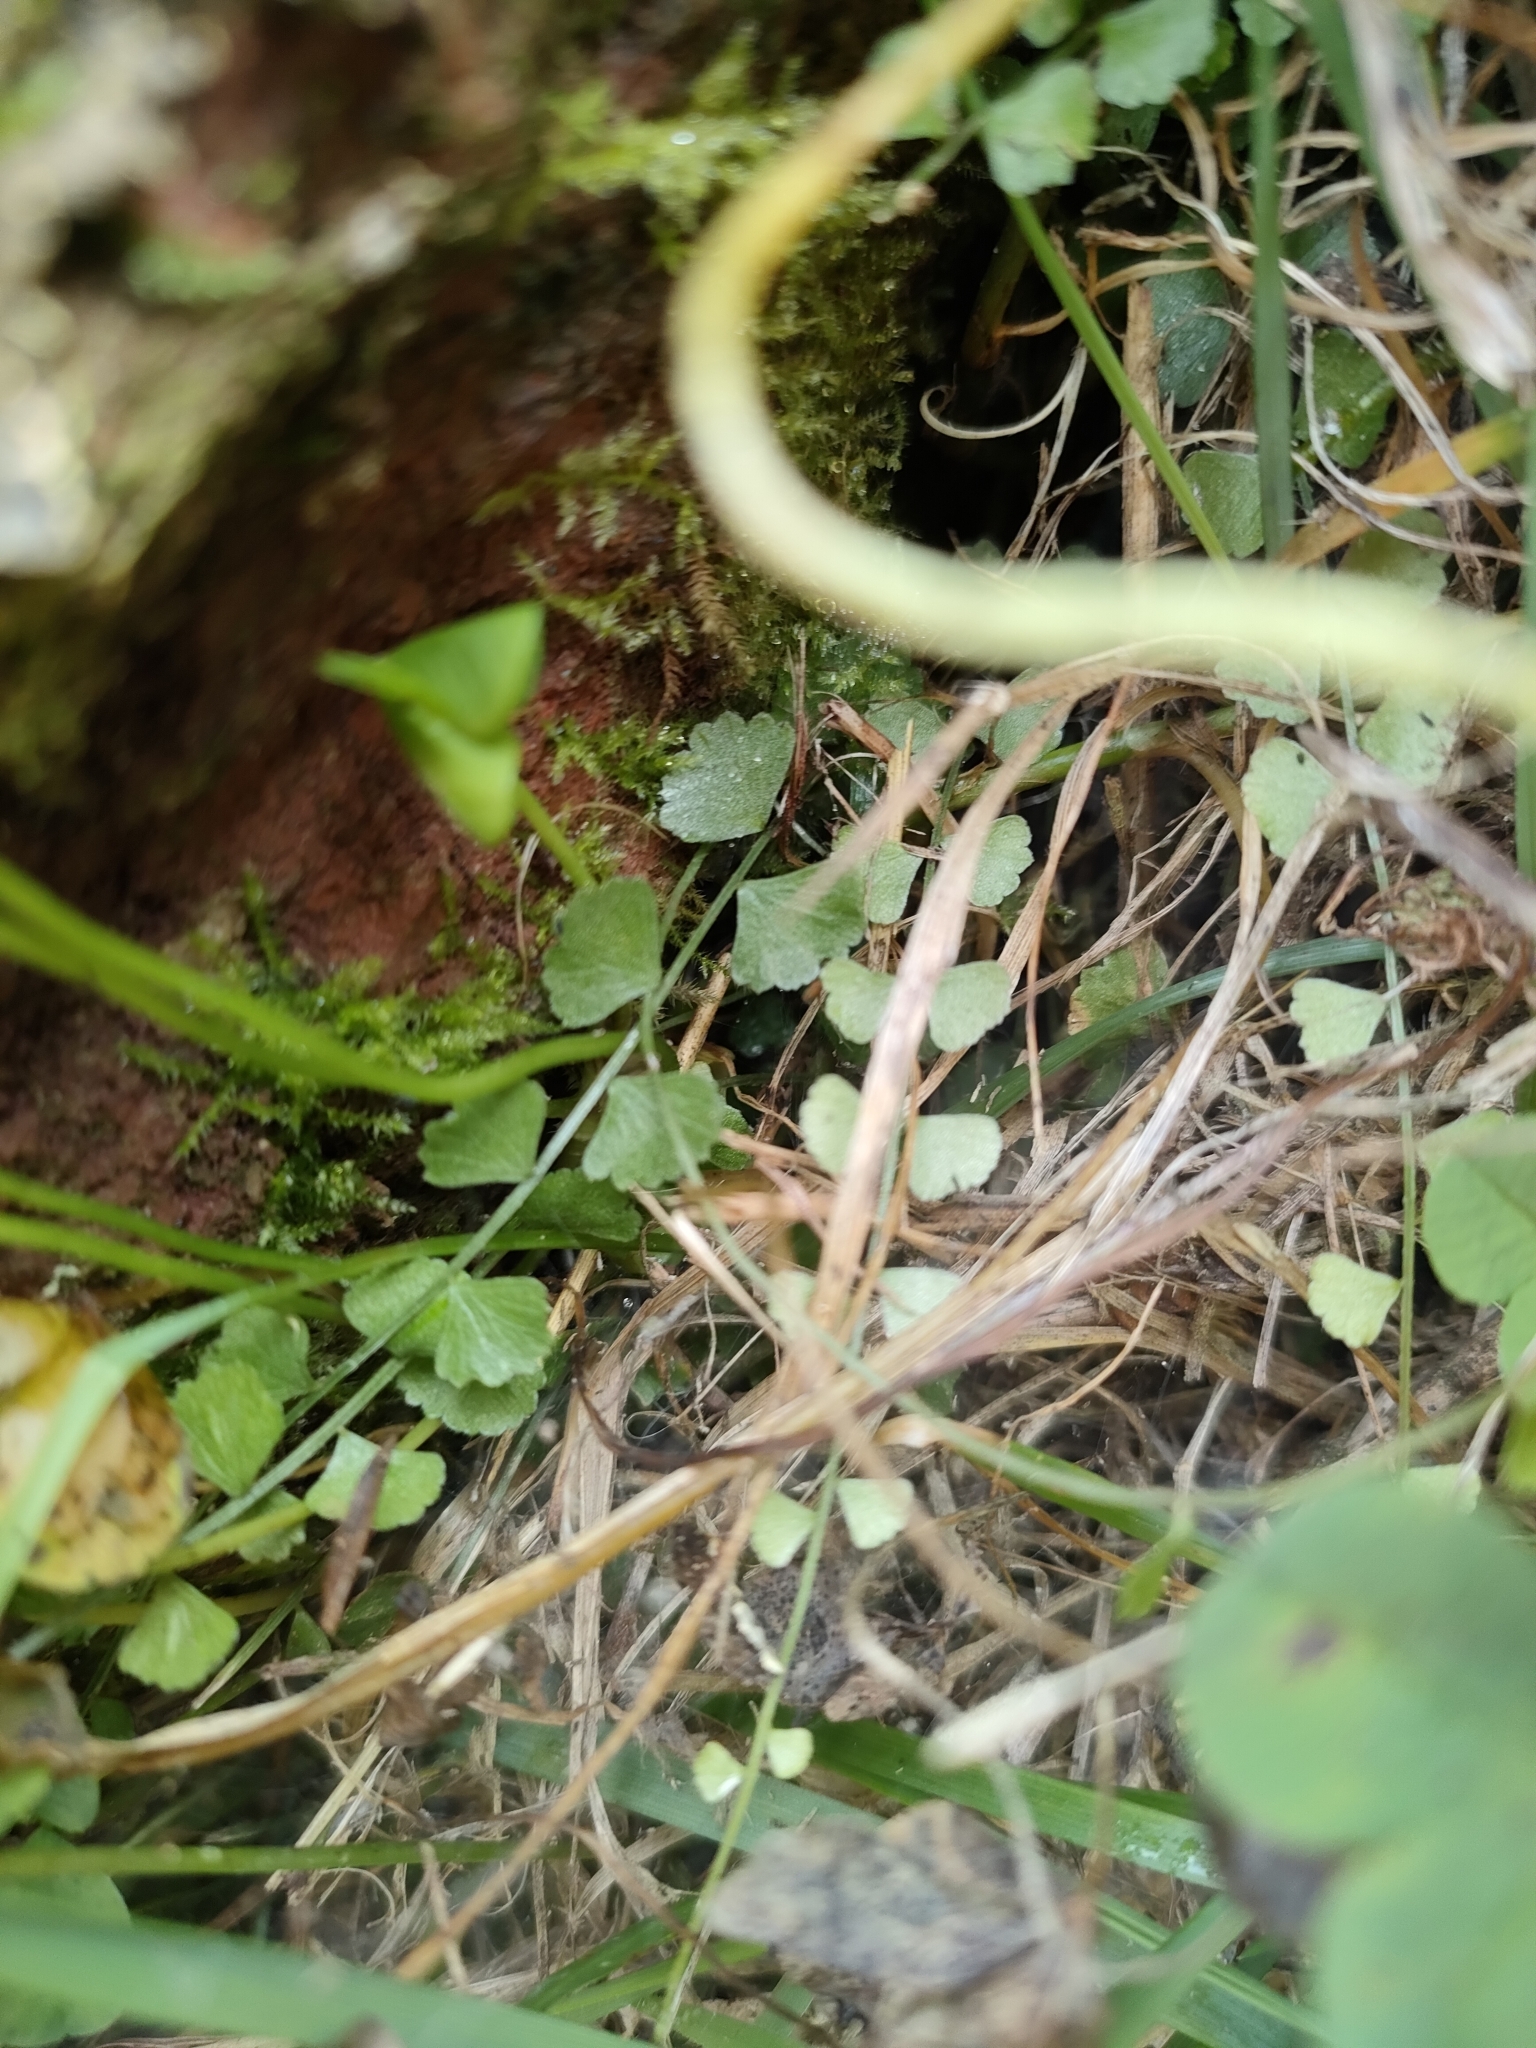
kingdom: Plantae
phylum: Tracheophyta
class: Polypodiopsida
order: Polypodiales
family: Aspleniaceae
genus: Asplenium
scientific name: Asplenium flabellifolium
